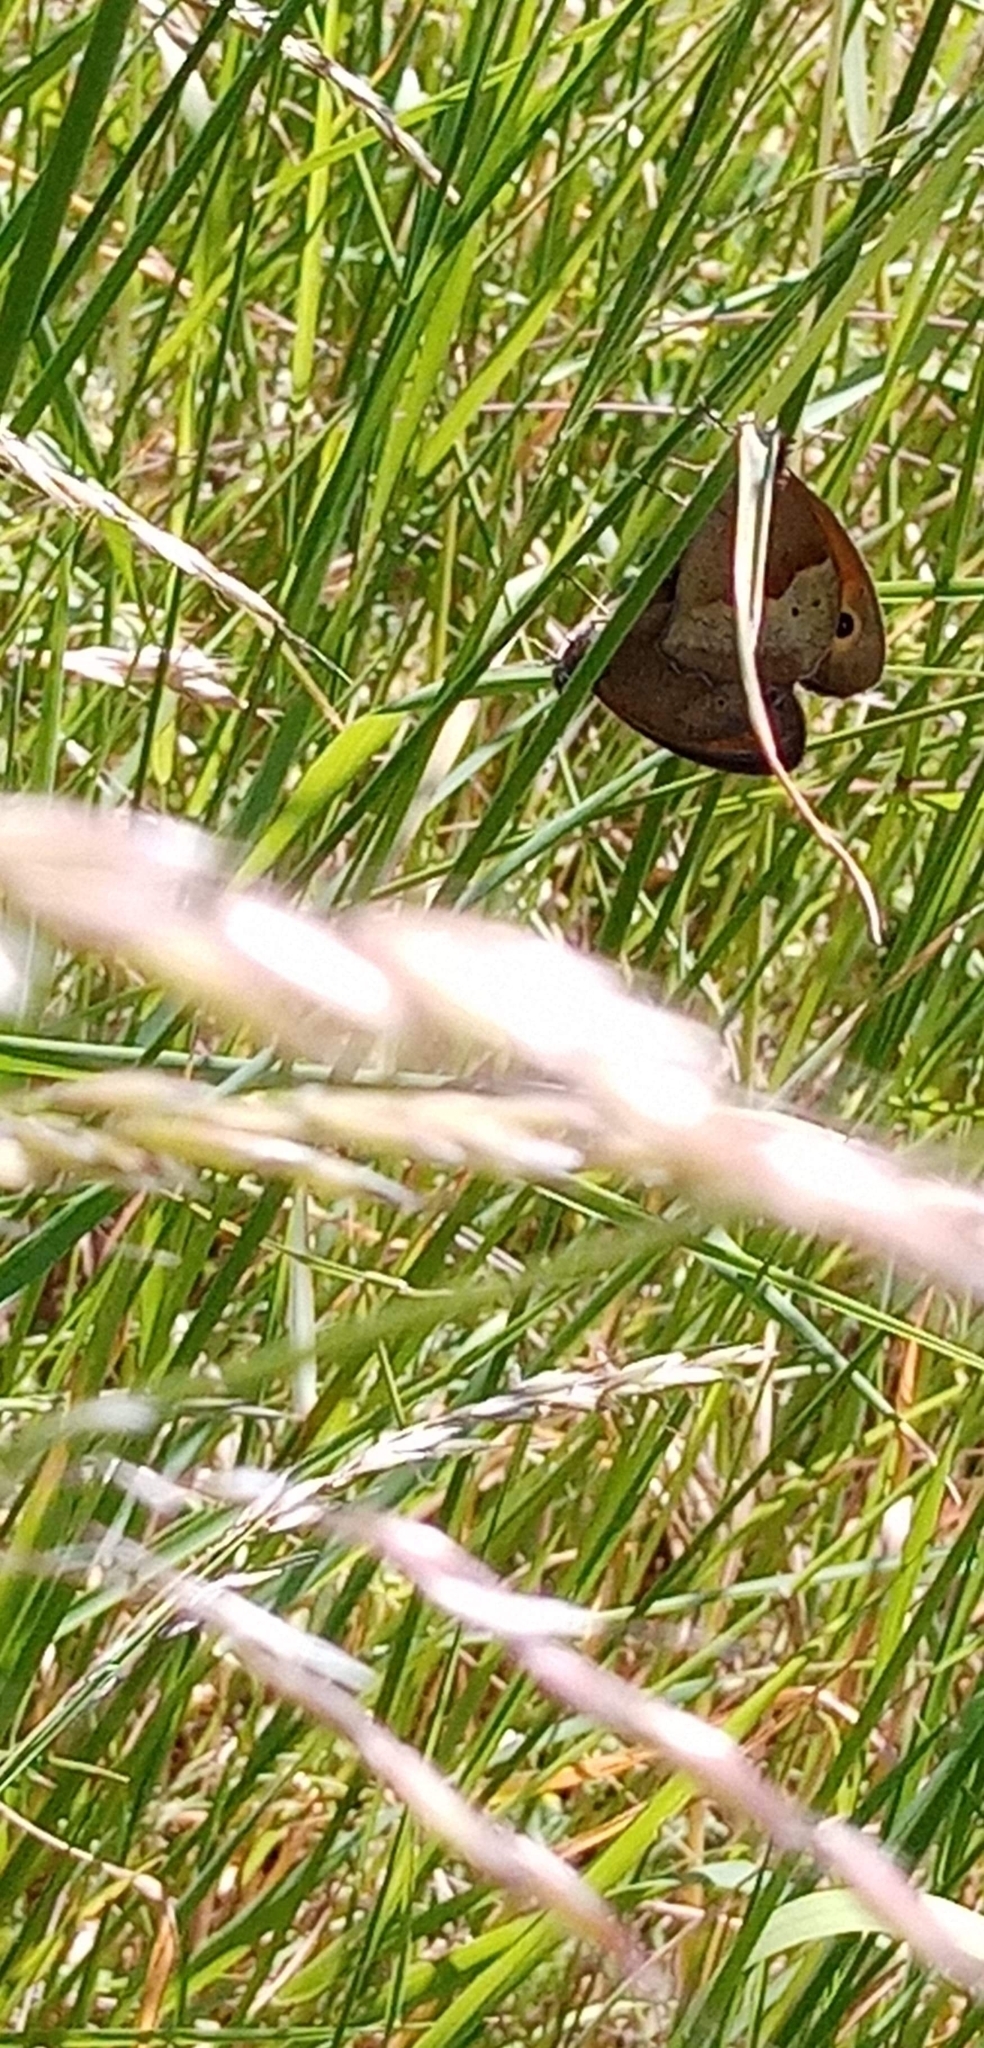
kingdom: Animalia
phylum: Arthropoda
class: Insecta
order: Lepidoptera
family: Nymphalidae
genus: Maniola
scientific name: Maniola jurtina
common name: Meadow brown
